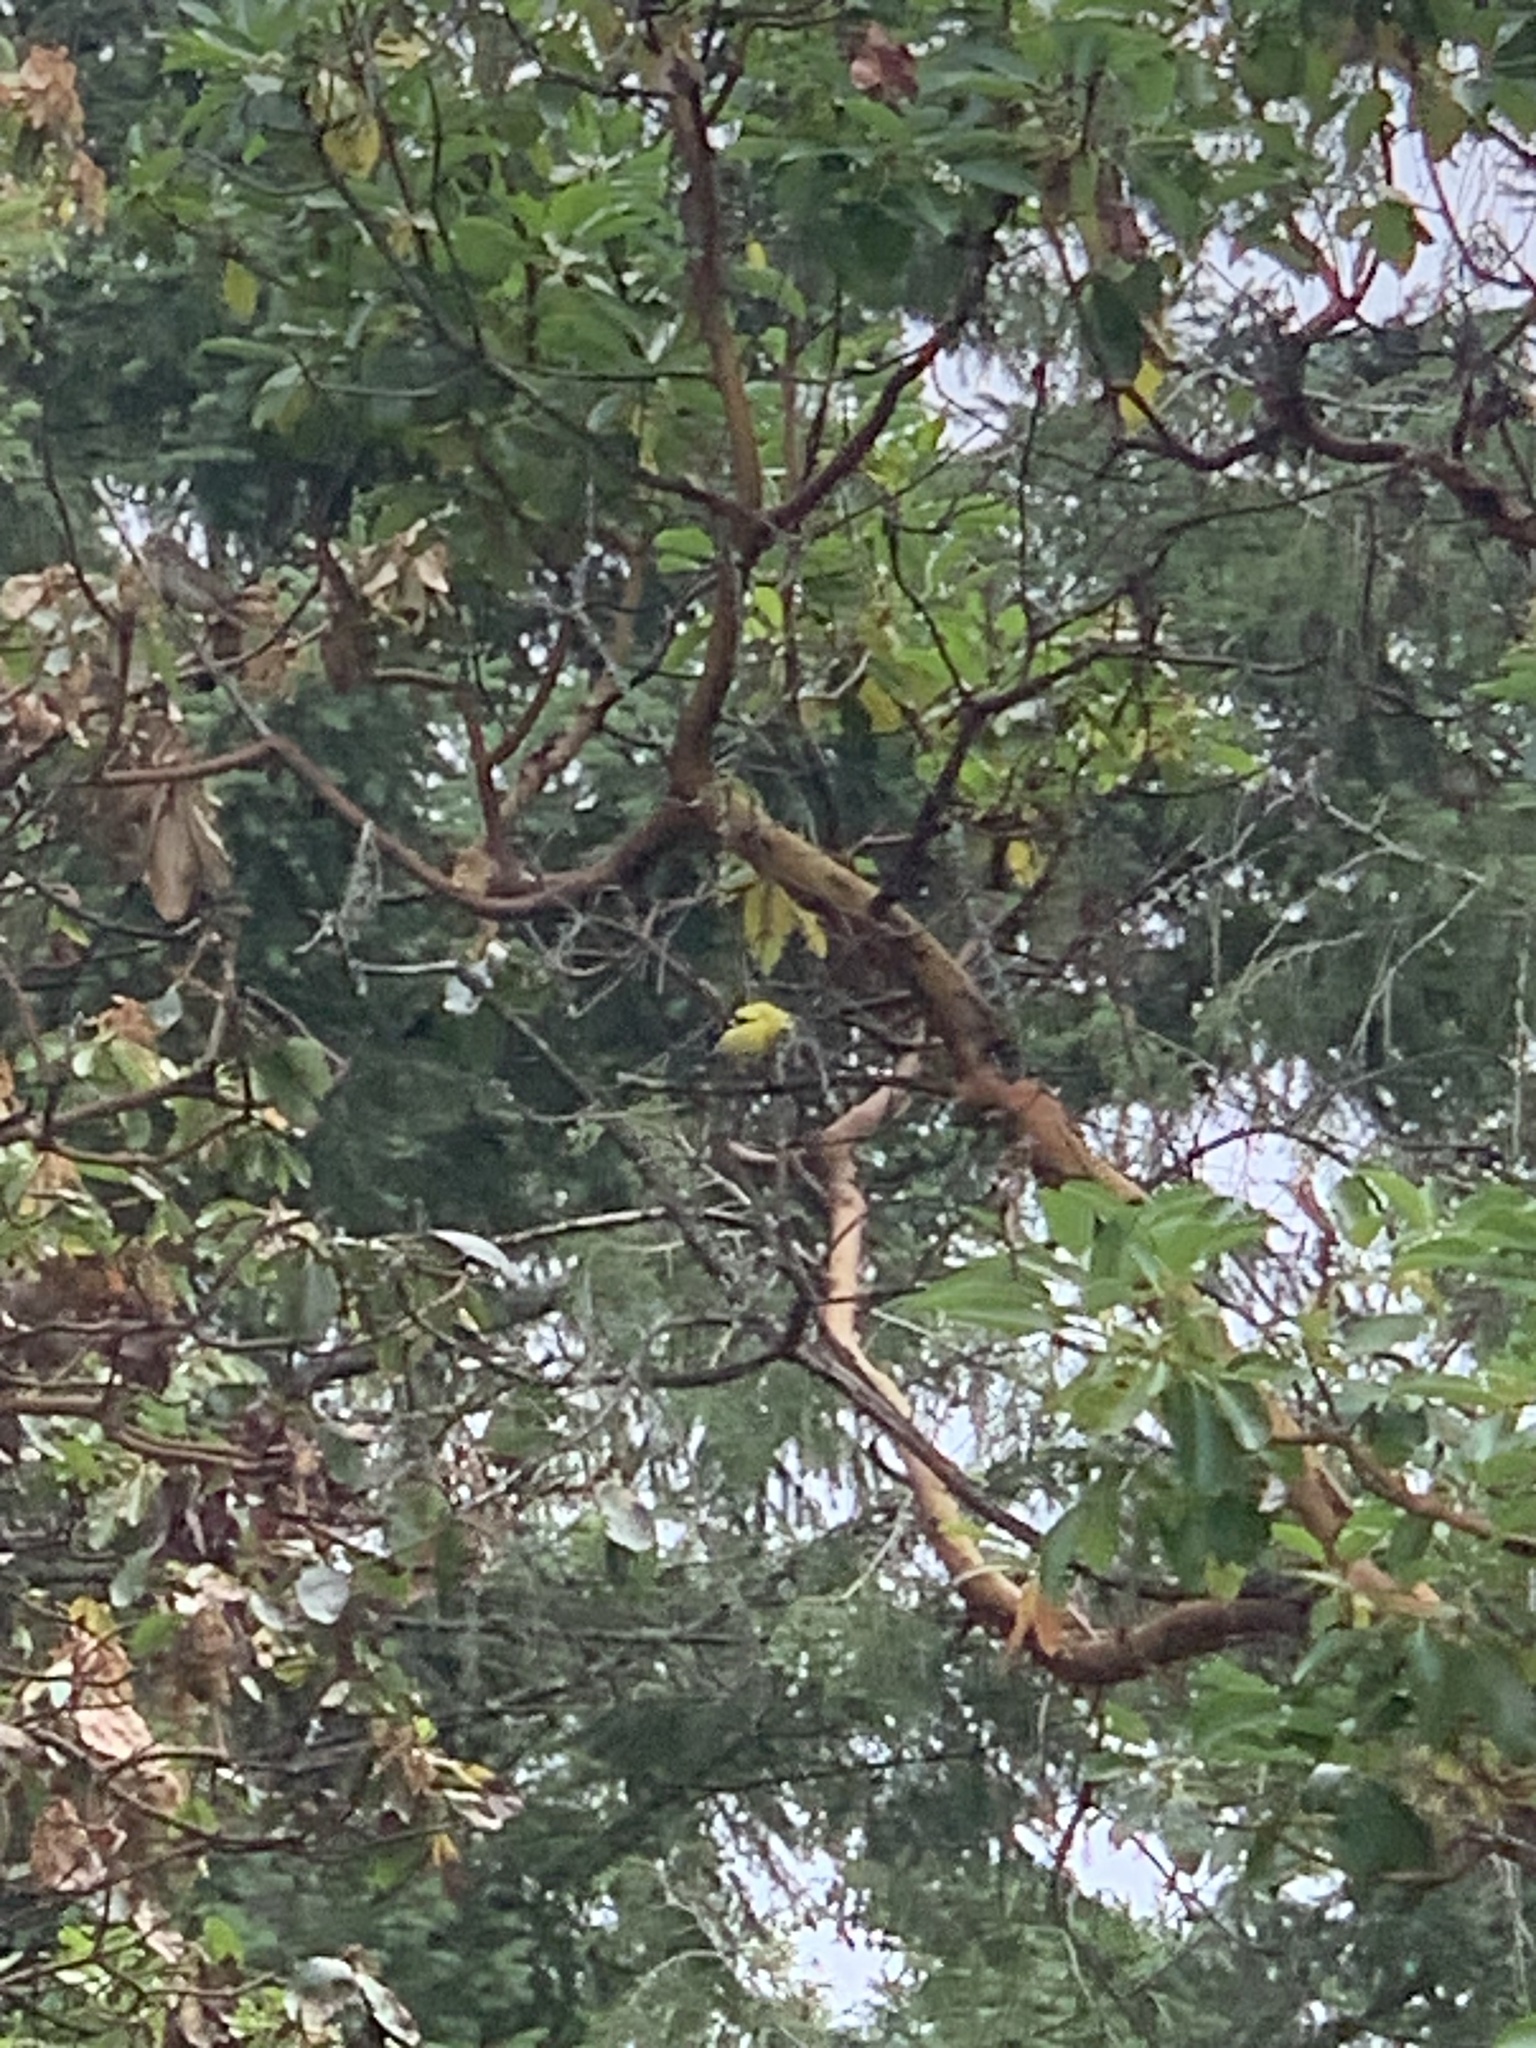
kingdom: Animalia
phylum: Chordata
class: Aves
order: Passeriformes
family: Fringillidae
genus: Spinus
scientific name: Spinus tristis
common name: American goldfinch
